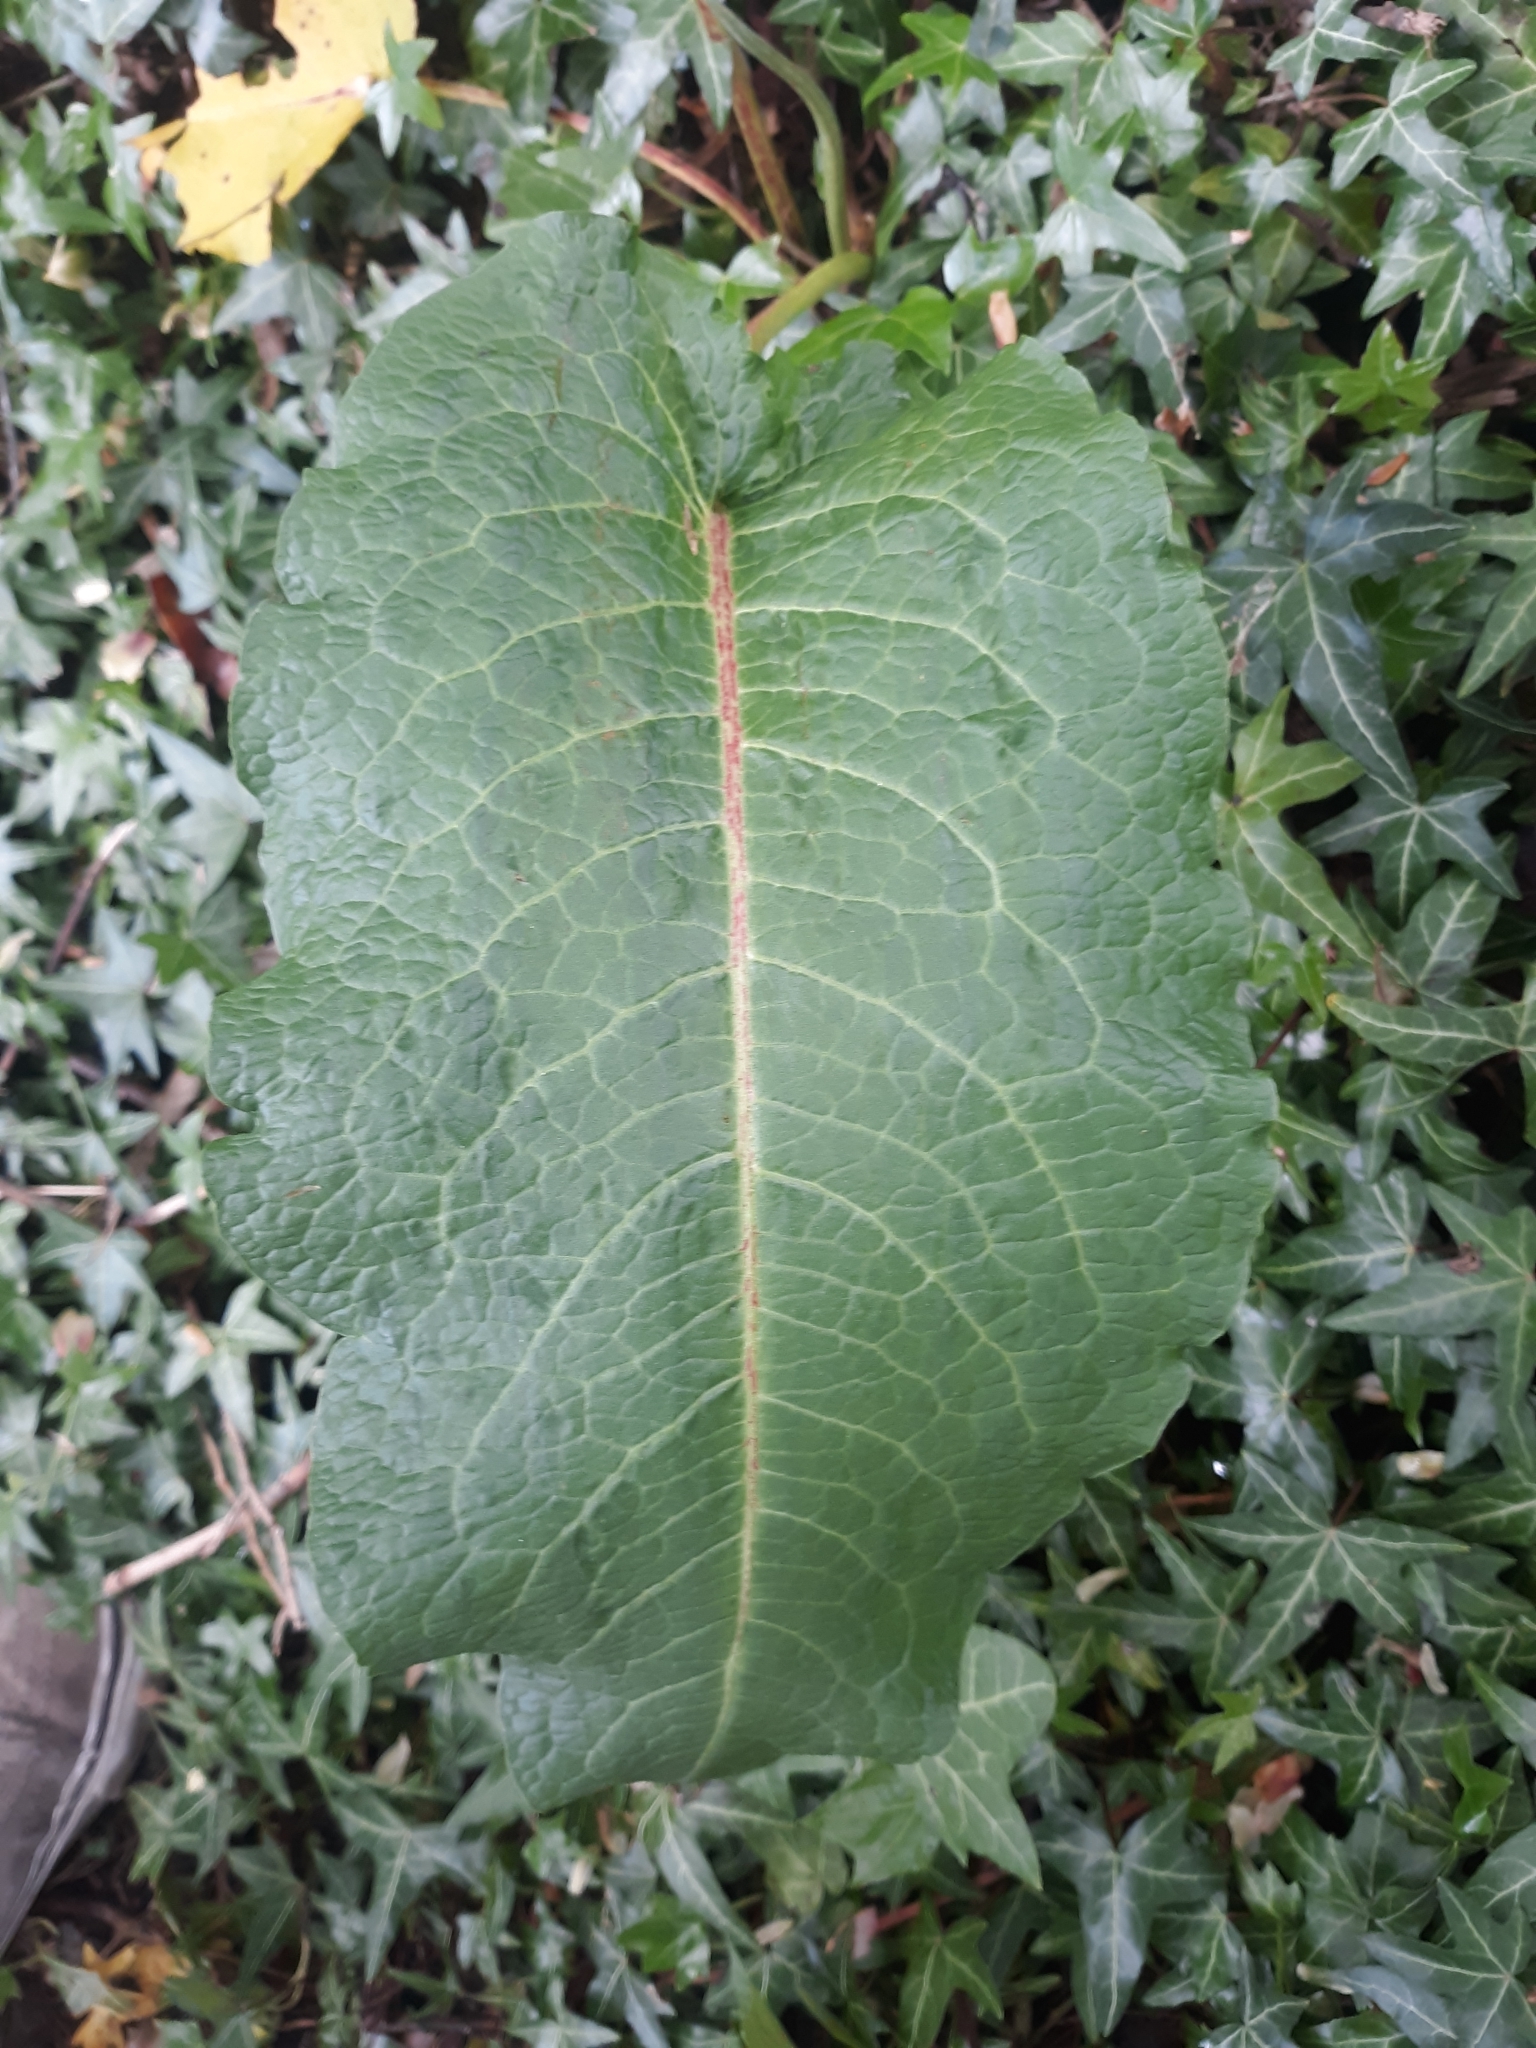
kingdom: Plantae
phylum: Tracheophyta
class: Magnoliopsida
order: Caryophyllales
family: Polygonaceae
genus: Rumex
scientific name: Rumex obtusifolius
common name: Bitter dock
